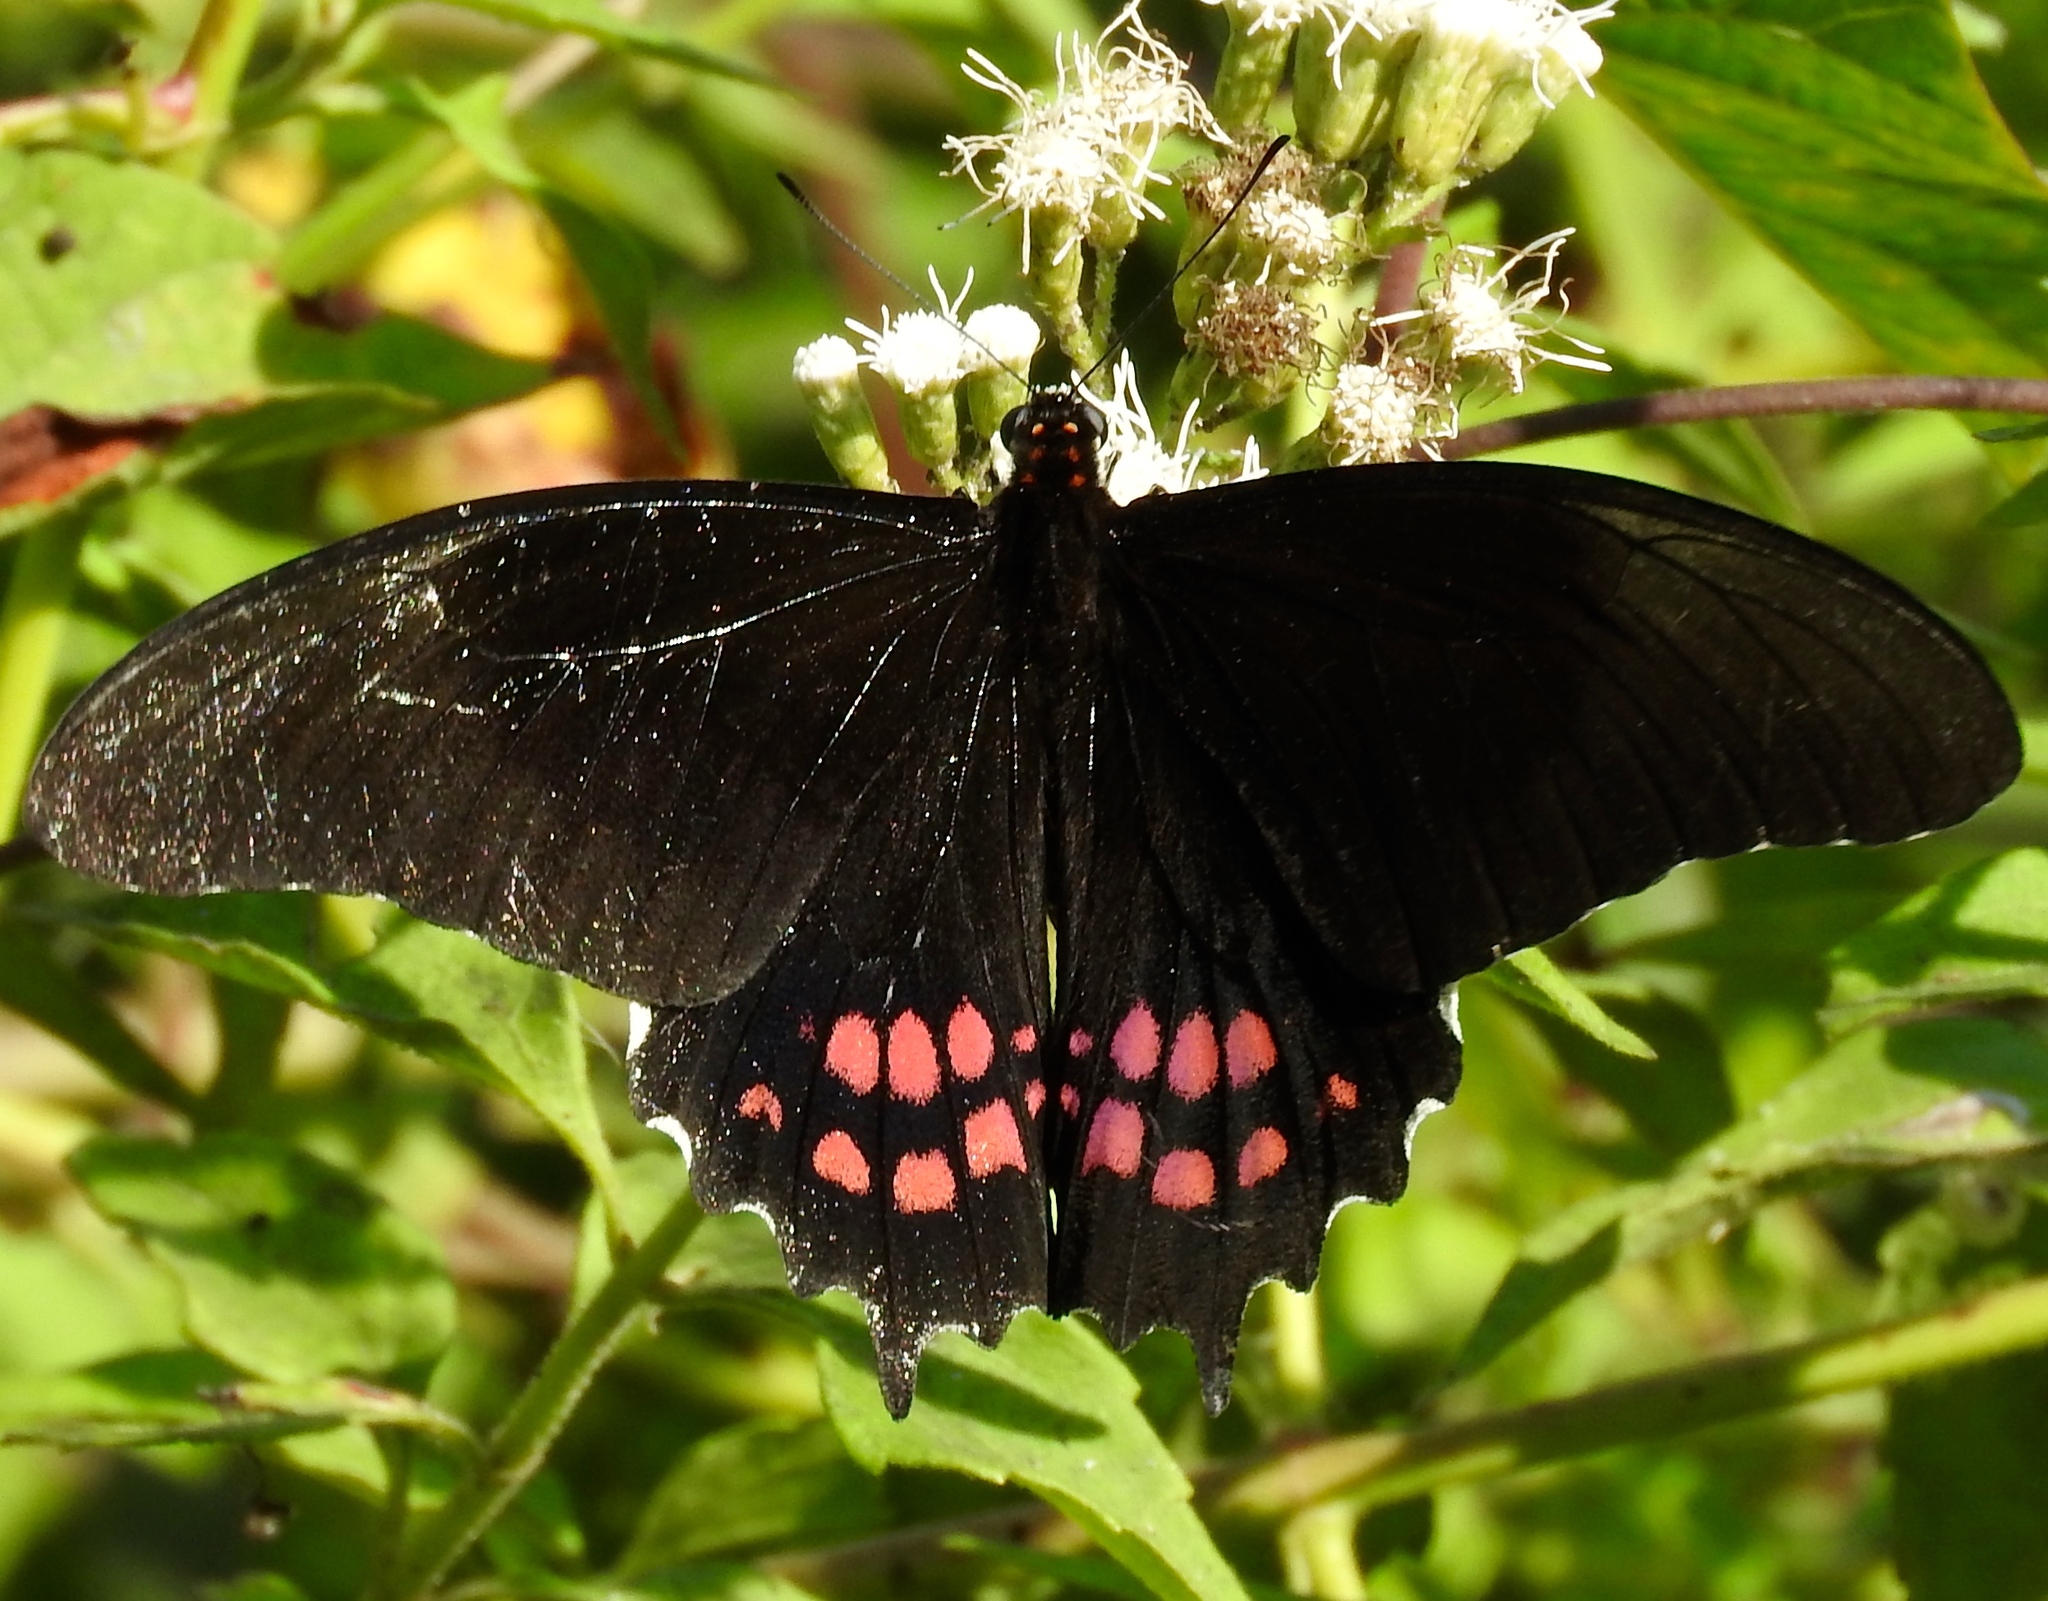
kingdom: Animalia
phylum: Arthropoda
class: Insecta
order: Lepidoptera
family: Papilionidae
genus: Heraclides
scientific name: Heraclides rogeri
